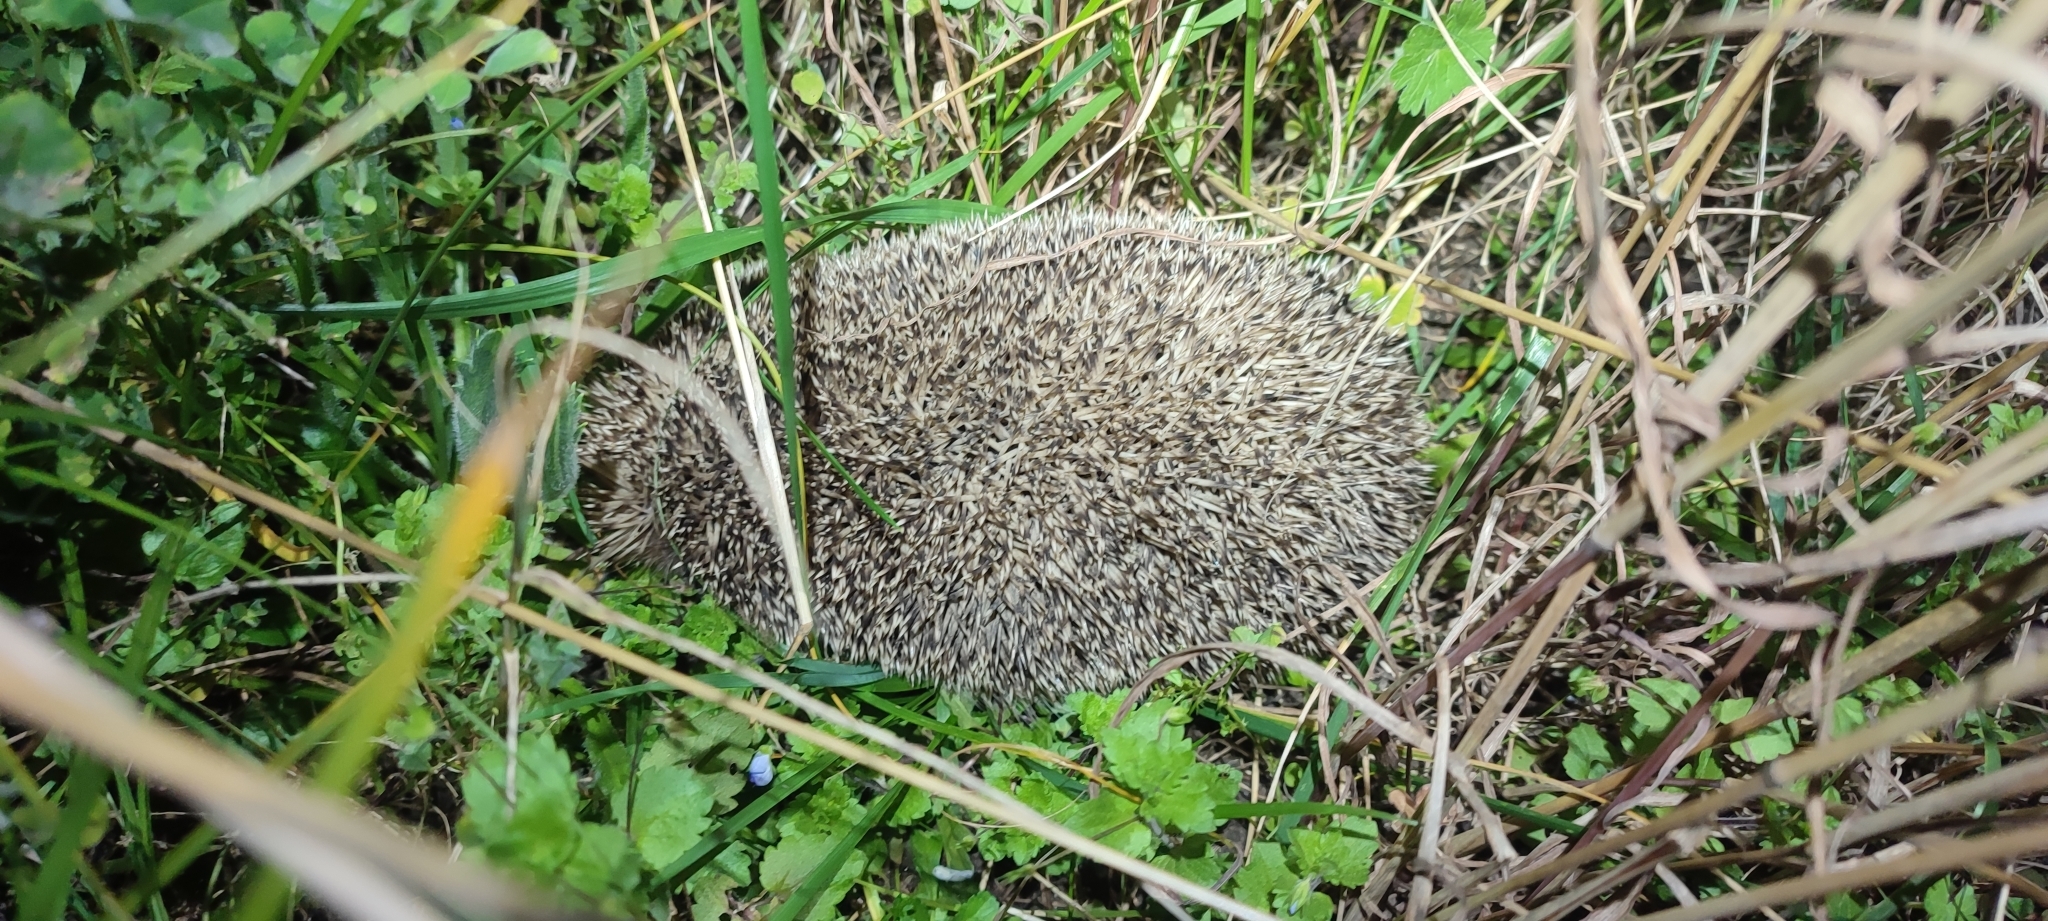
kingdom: Animalia
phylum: Chordata
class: Mammalia
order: Erinaceomorpha
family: Erinaceidae
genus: Erinaceus
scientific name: Erinaceus europaeus
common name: West european hedgehog
